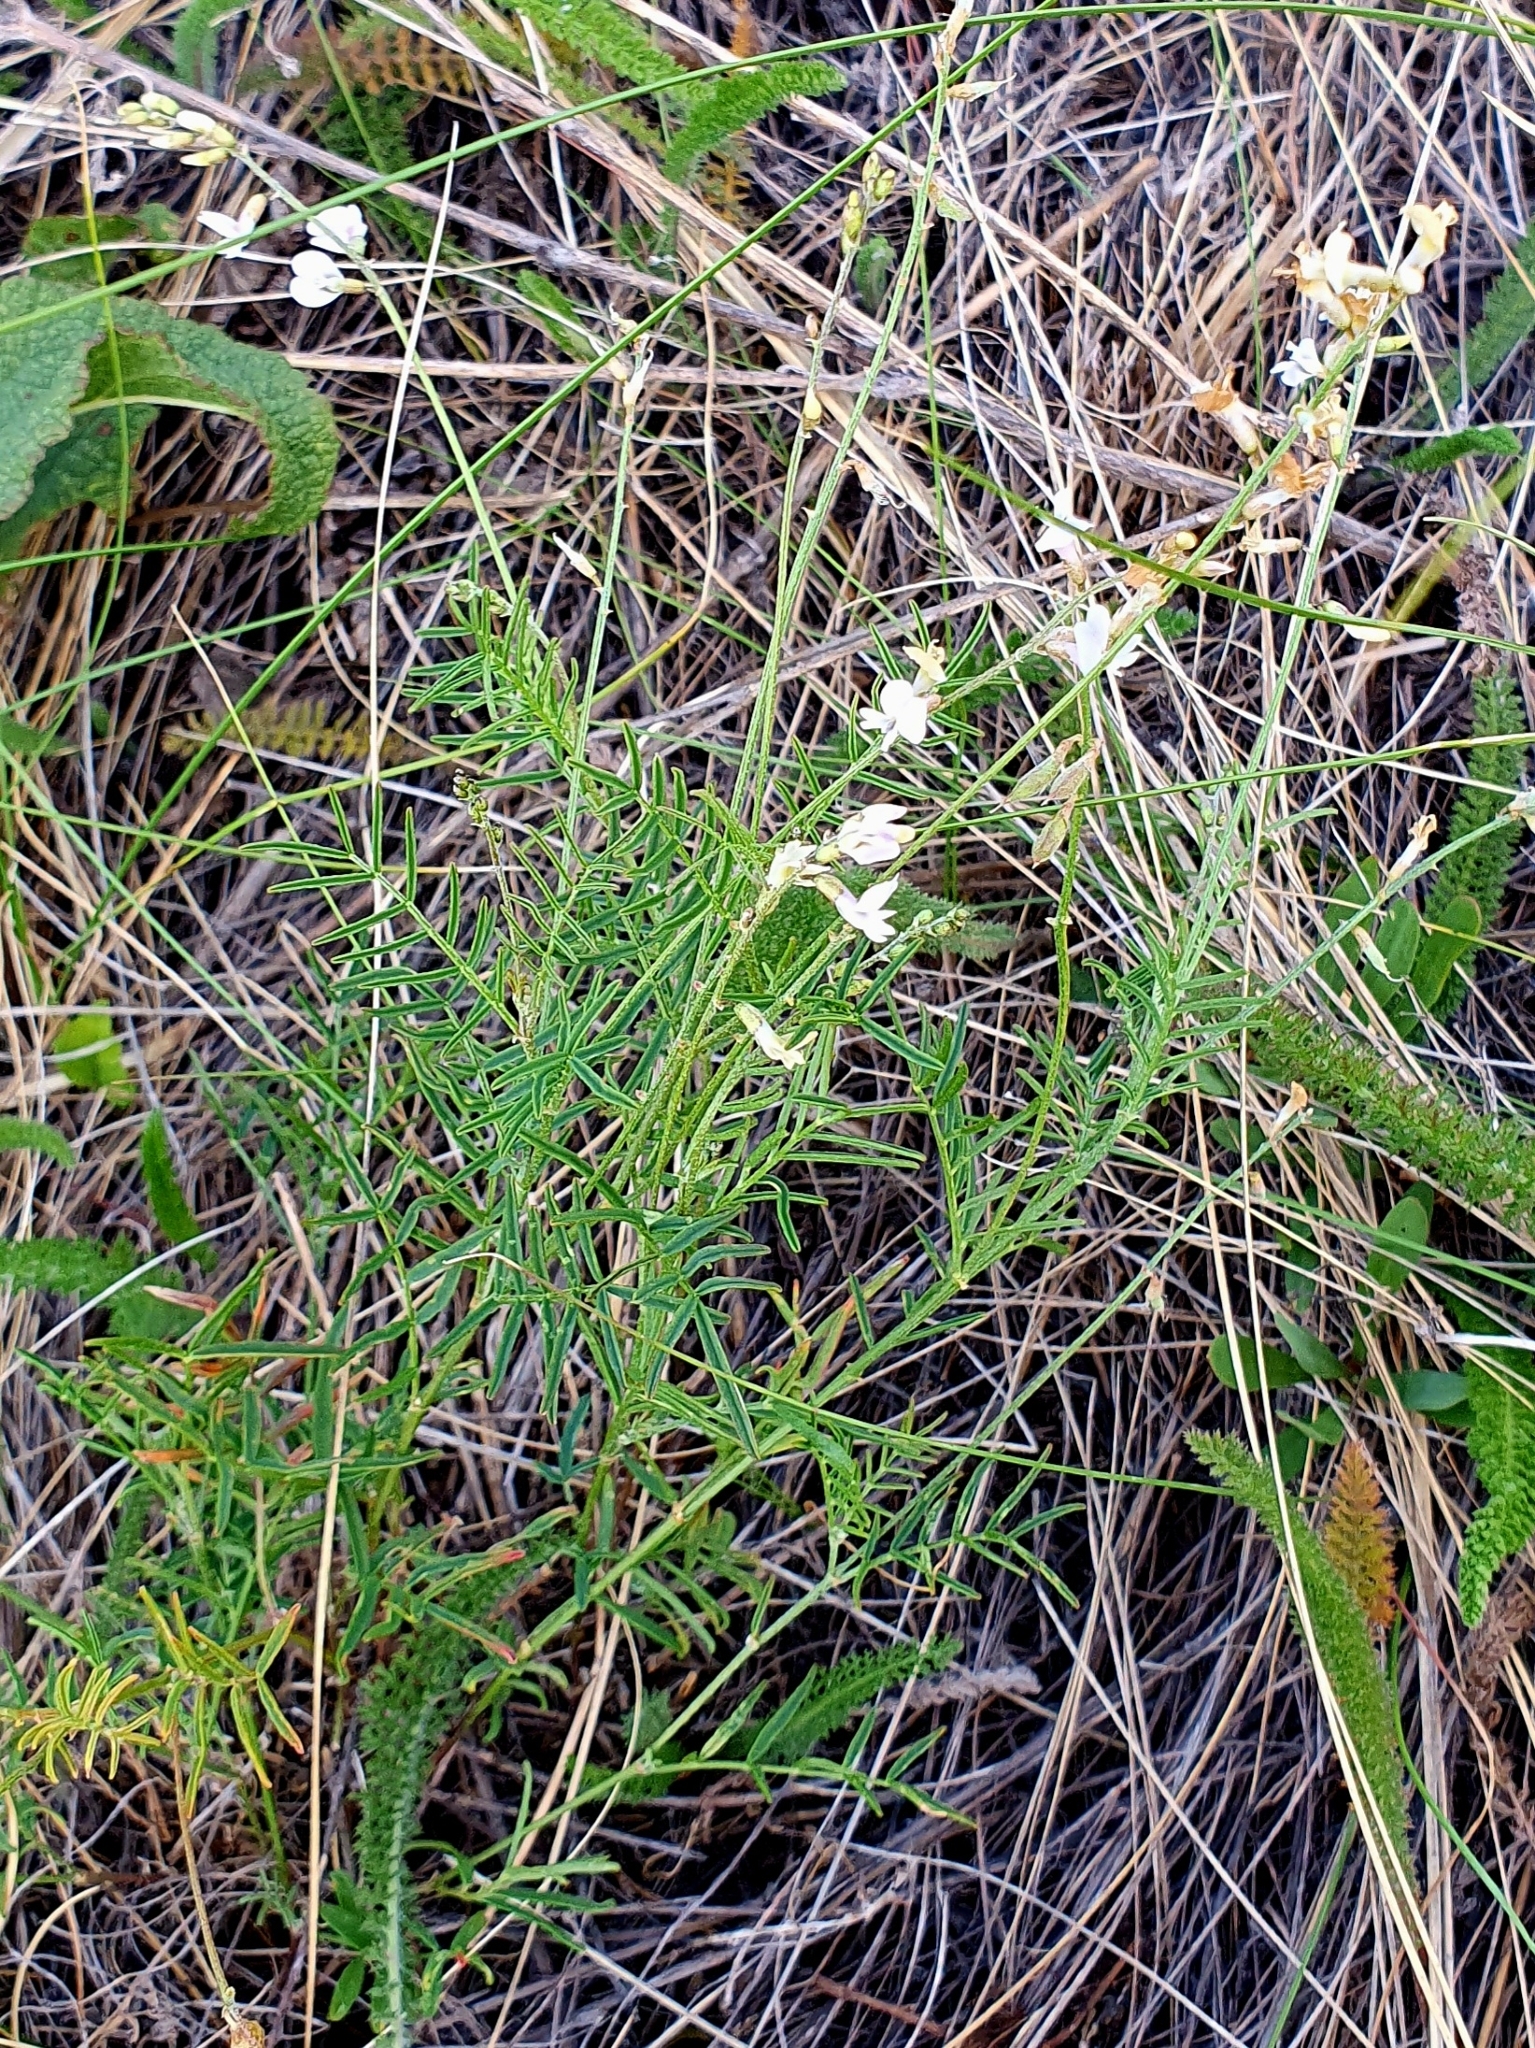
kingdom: Plantae
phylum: Tracheophyta
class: Magnoliopsida
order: Fabales
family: Fabaceae
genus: Astragalus
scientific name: Astragalus austriacus
